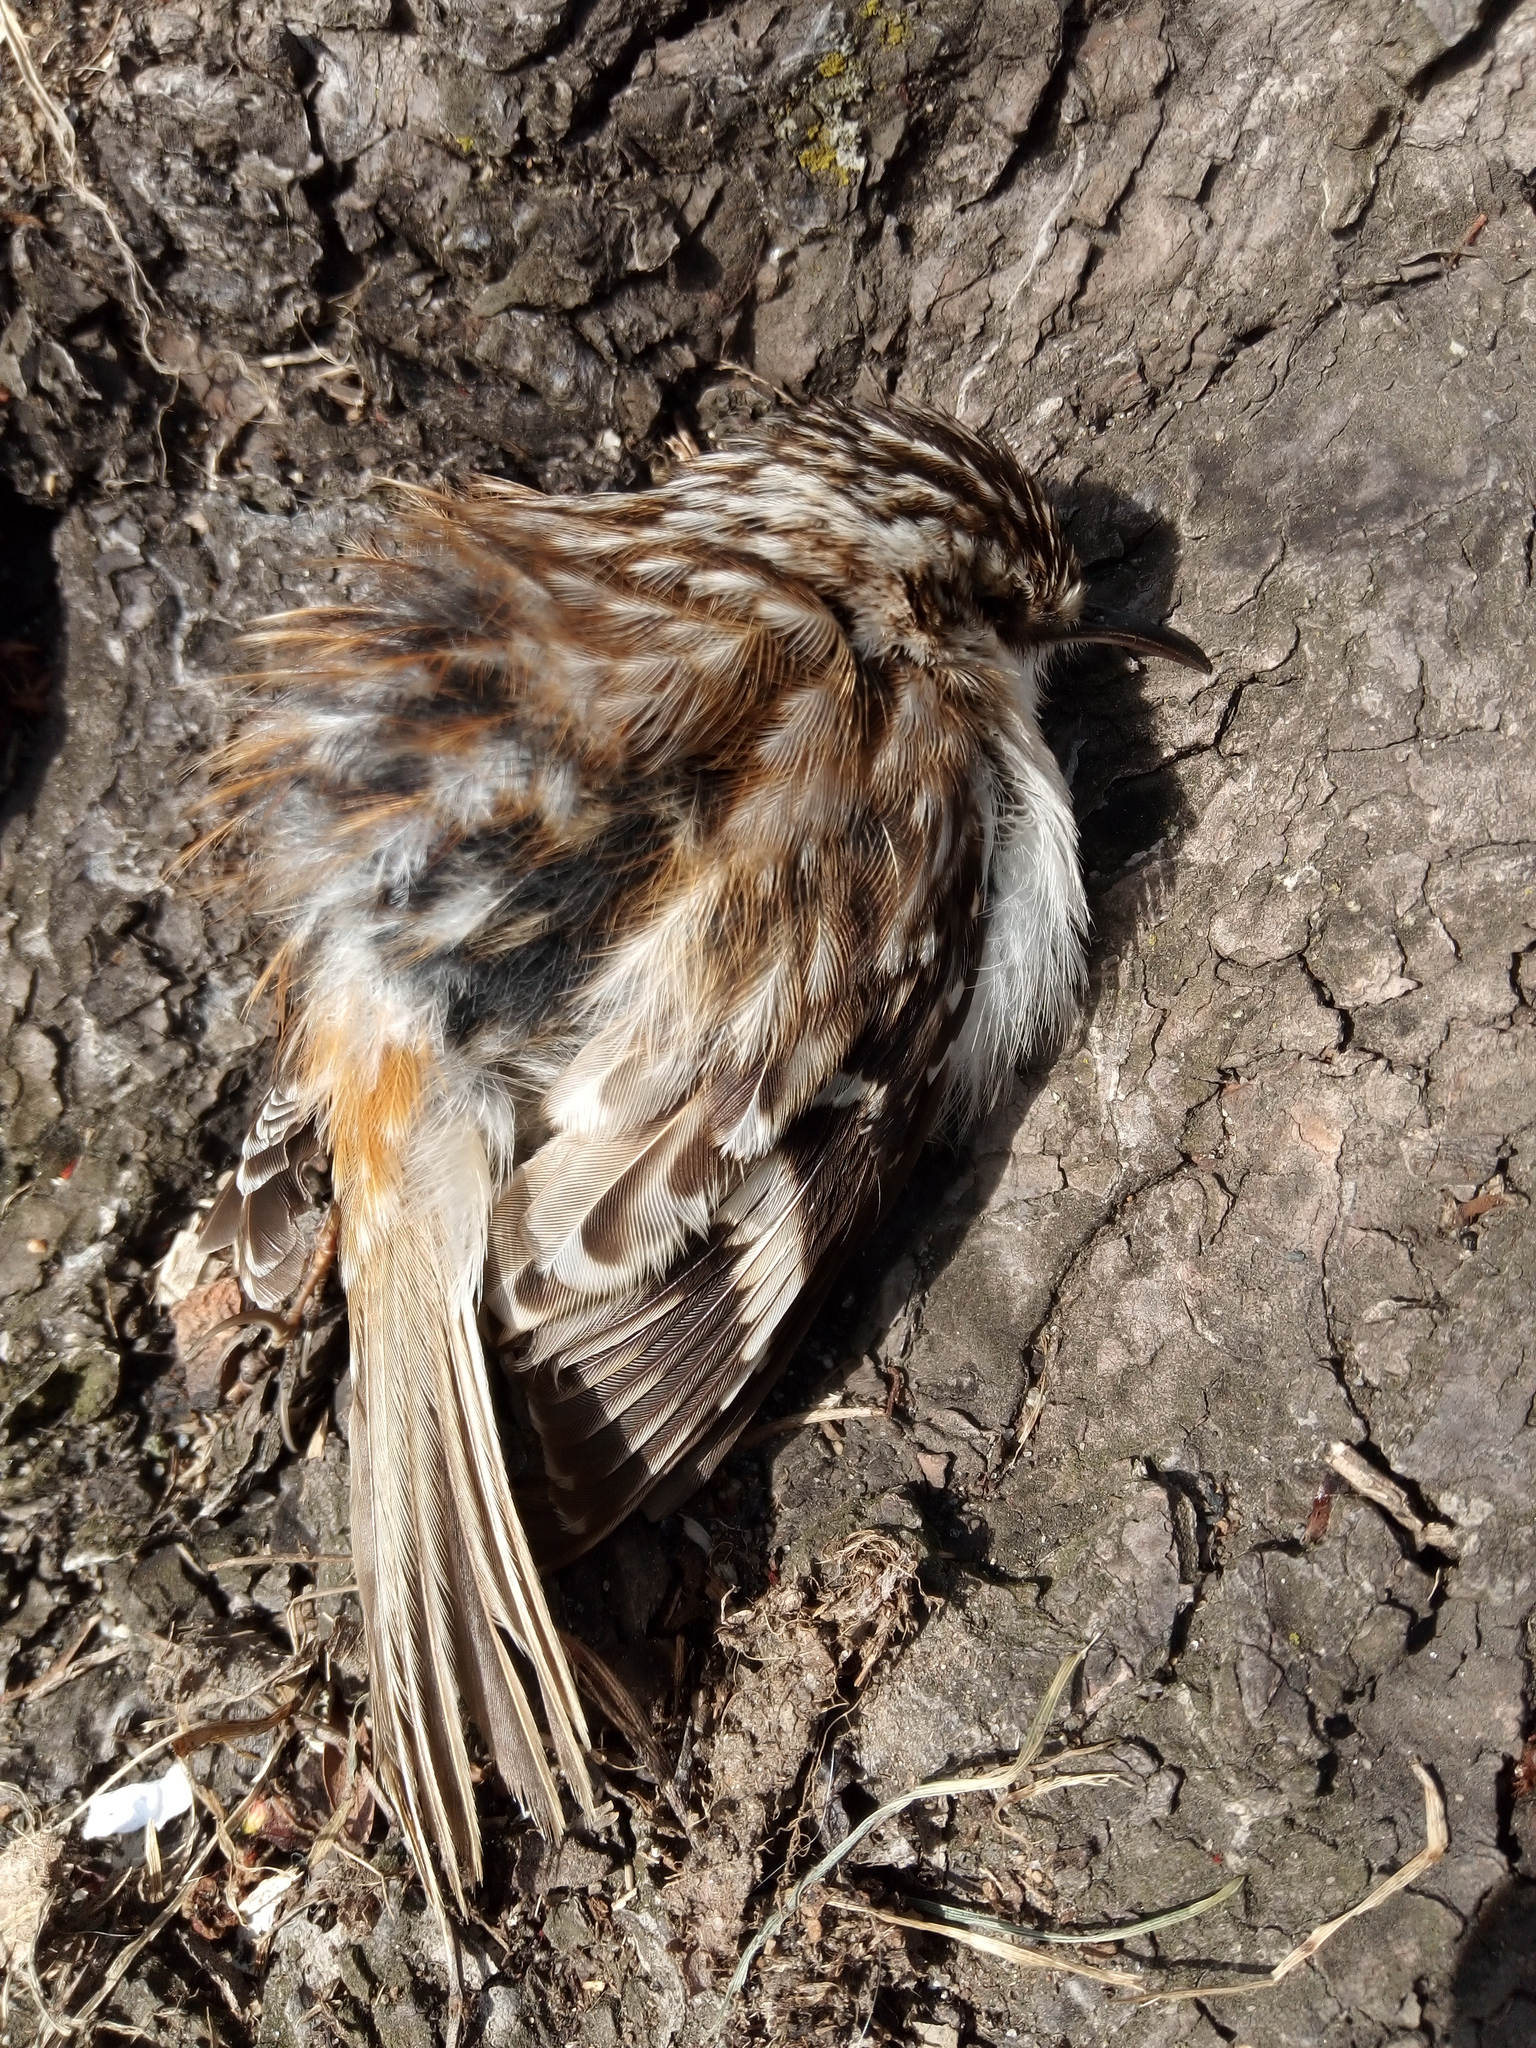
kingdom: Animalia
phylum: Chordata
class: Aves
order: Passeriformes
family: Certhiidae
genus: Certhia
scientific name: Certhia americana
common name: Brown creeper
